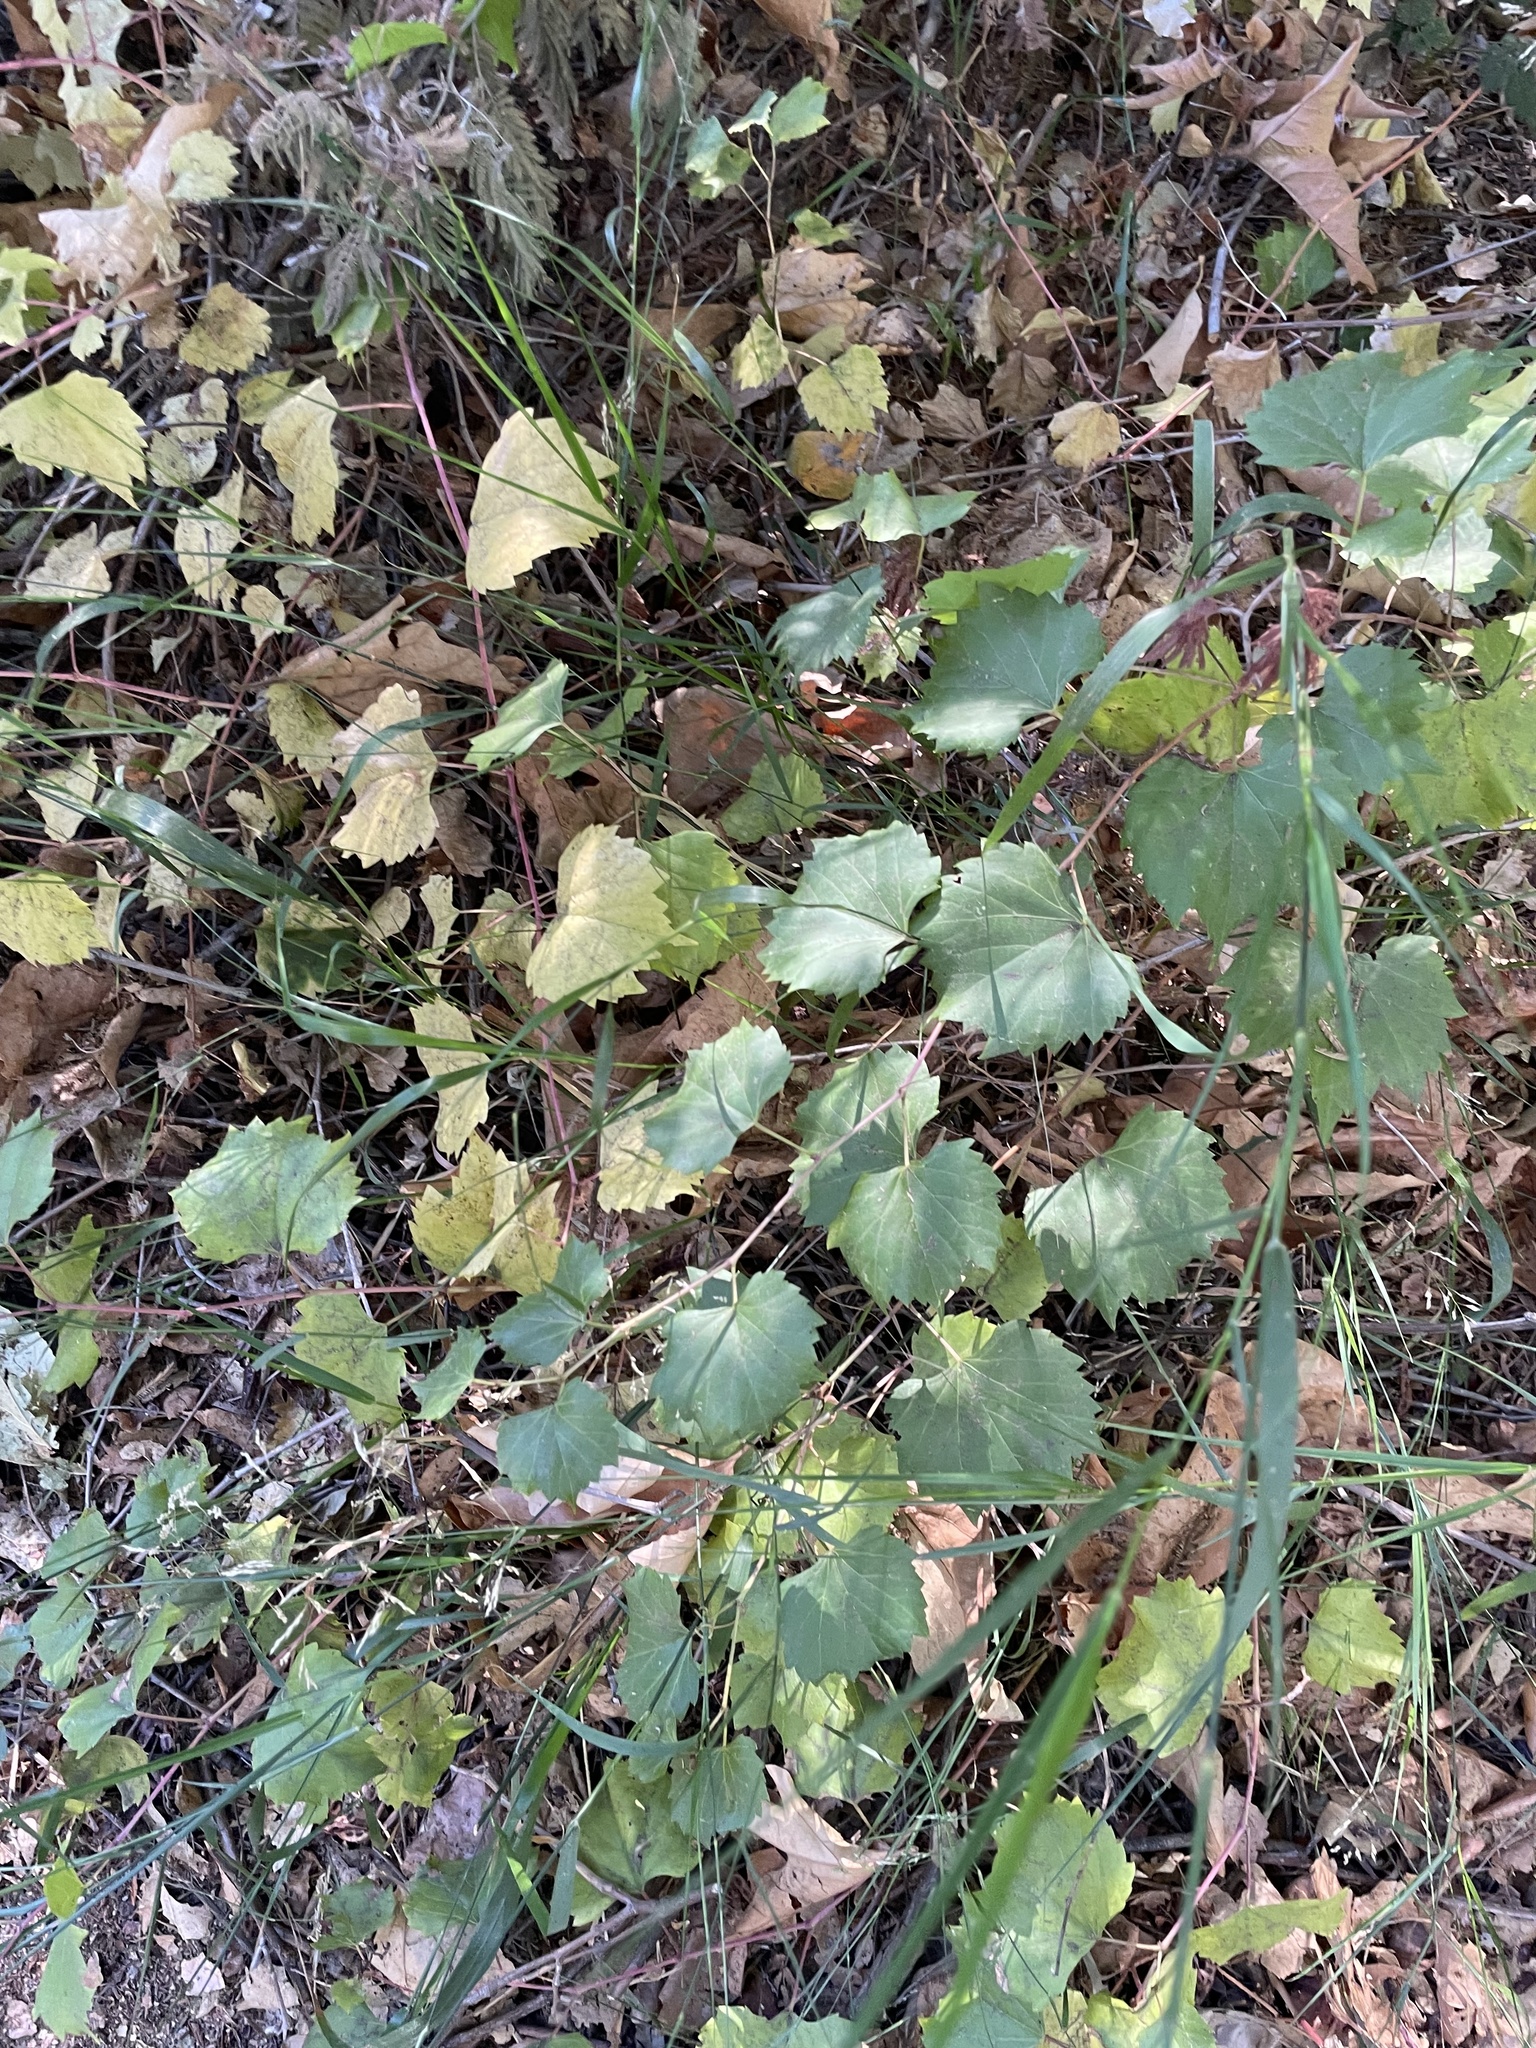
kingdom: Plantae
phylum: Tracheophyta
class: Magnoliopsida
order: Vitales
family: Vitaceae
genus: Vitis
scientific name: Vitis californica
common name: California wild grape
